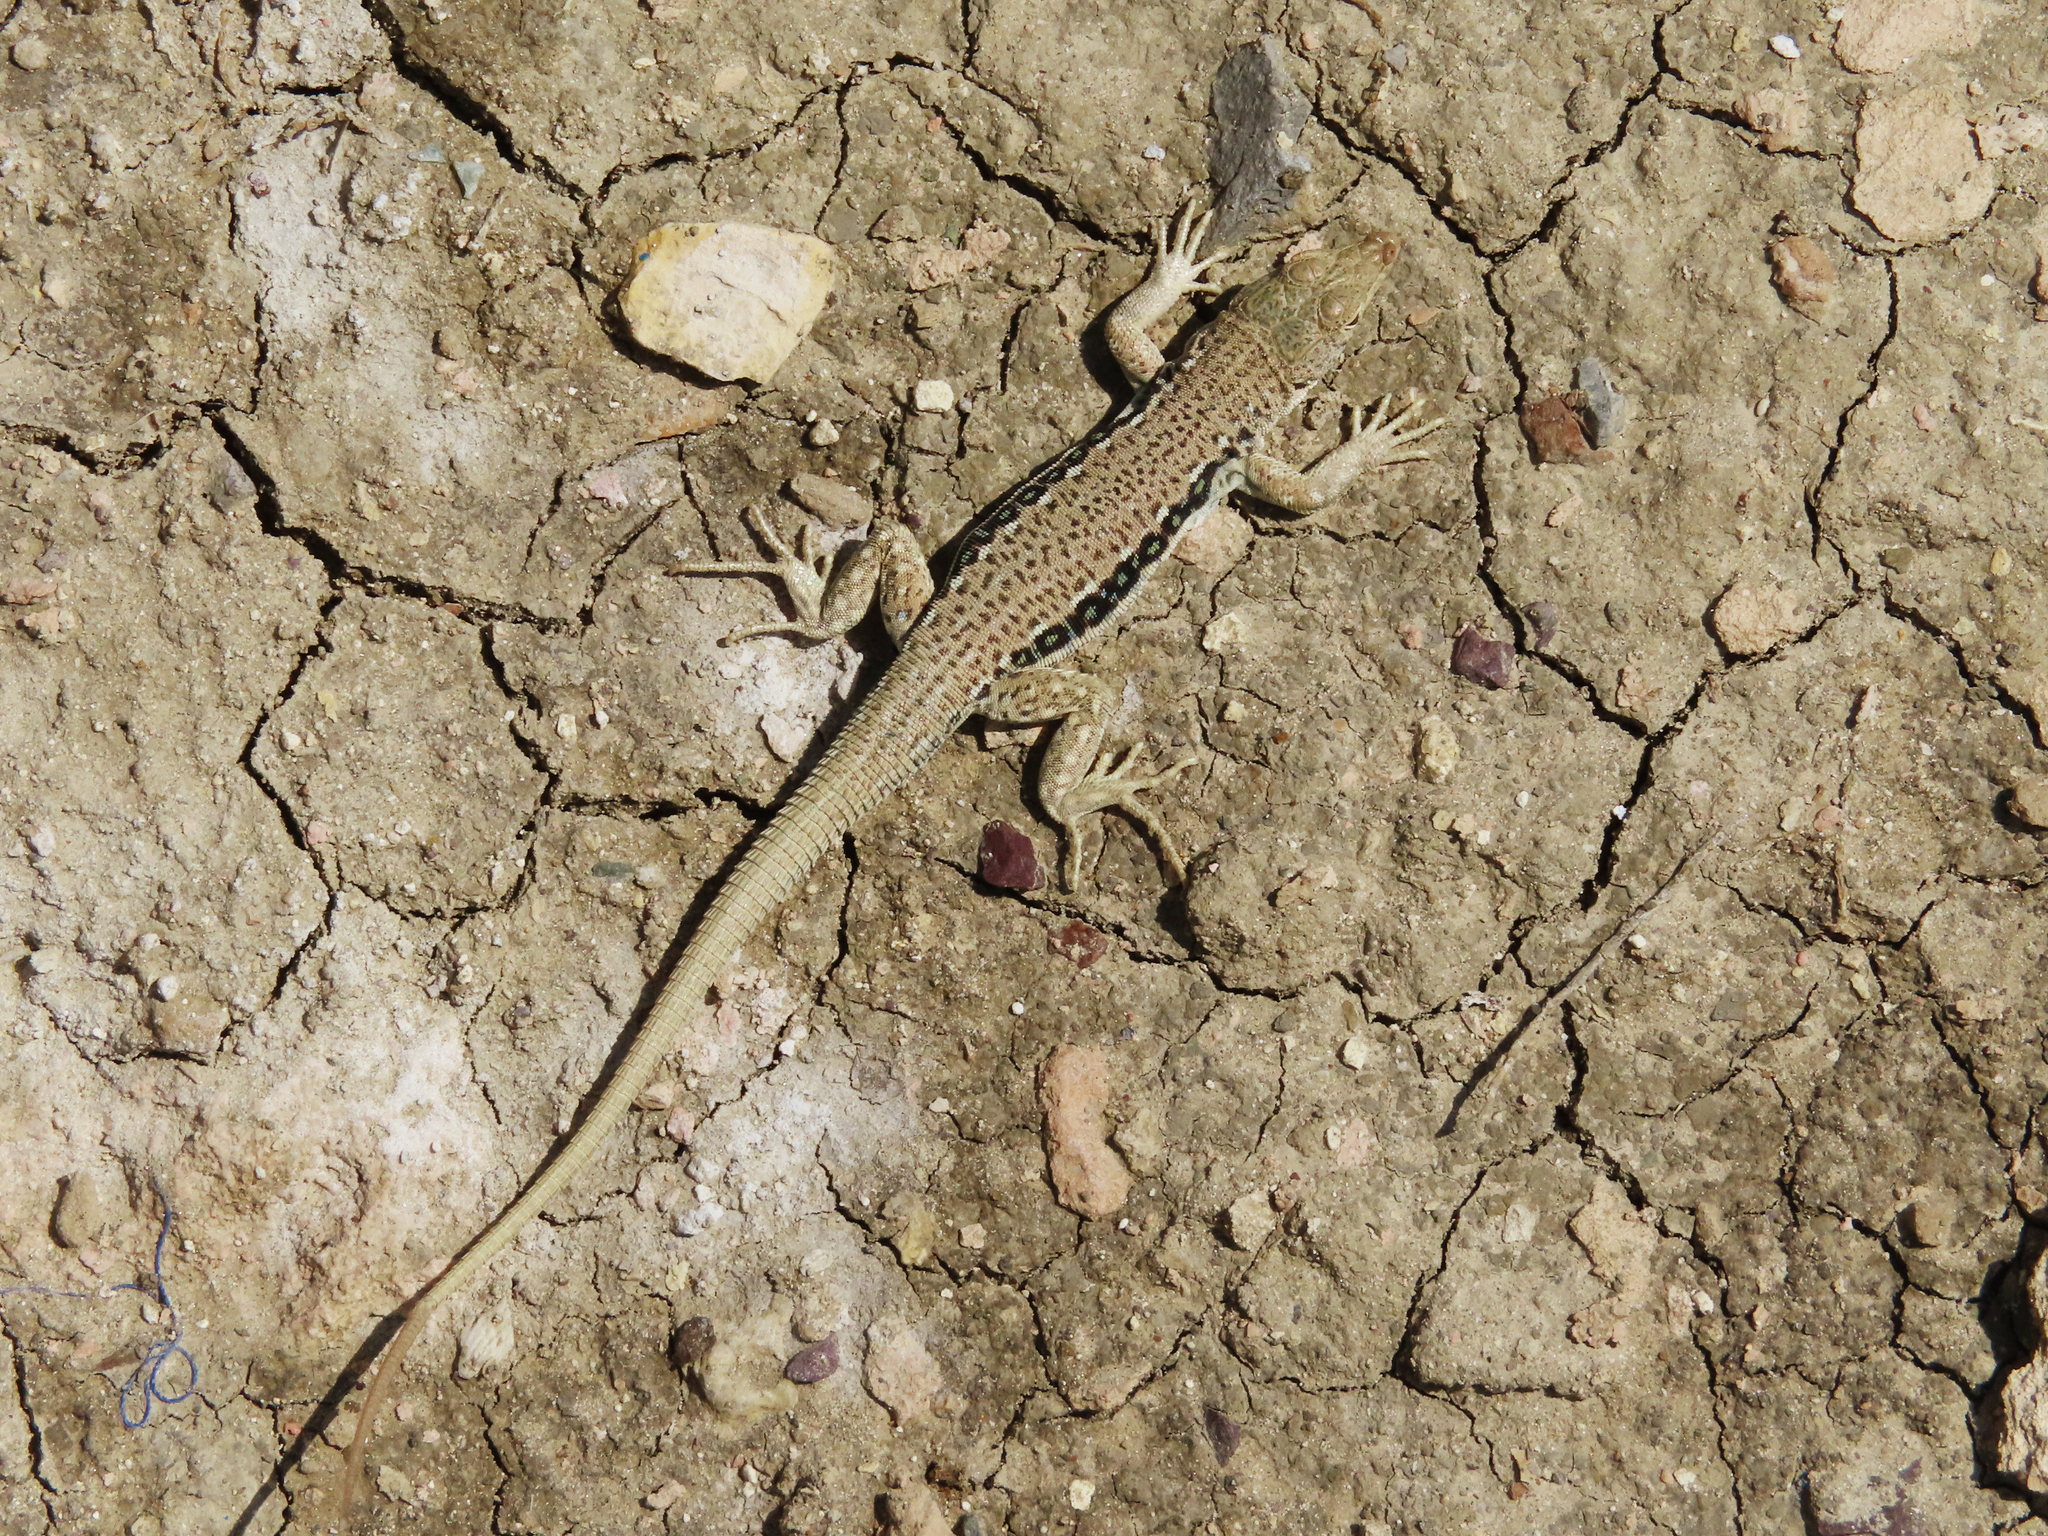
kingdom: Animalia
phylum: Chordata
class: Squamata
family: Lacertidae
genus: Eremias
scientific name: Eremias velox
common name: Central asian racerunner
